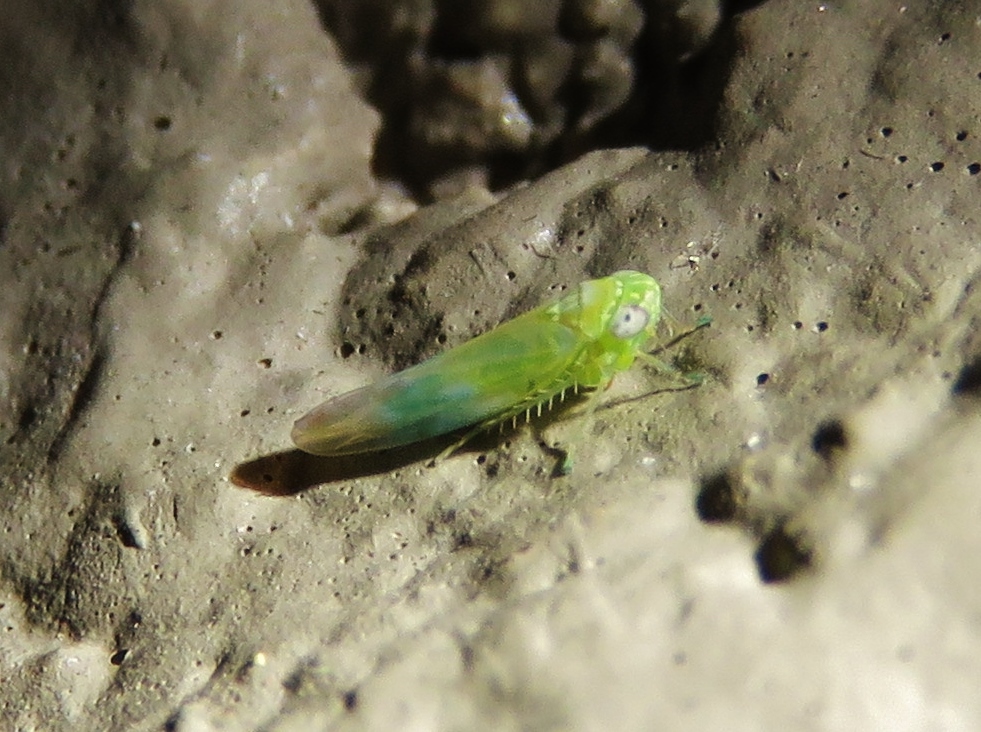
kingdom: Animalia
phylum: Arthropoda
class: Insecta
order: Hemiptera
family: Cicadellidae
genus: Empoasca
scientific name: Empoasca fabae
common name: Potato leafhopper
